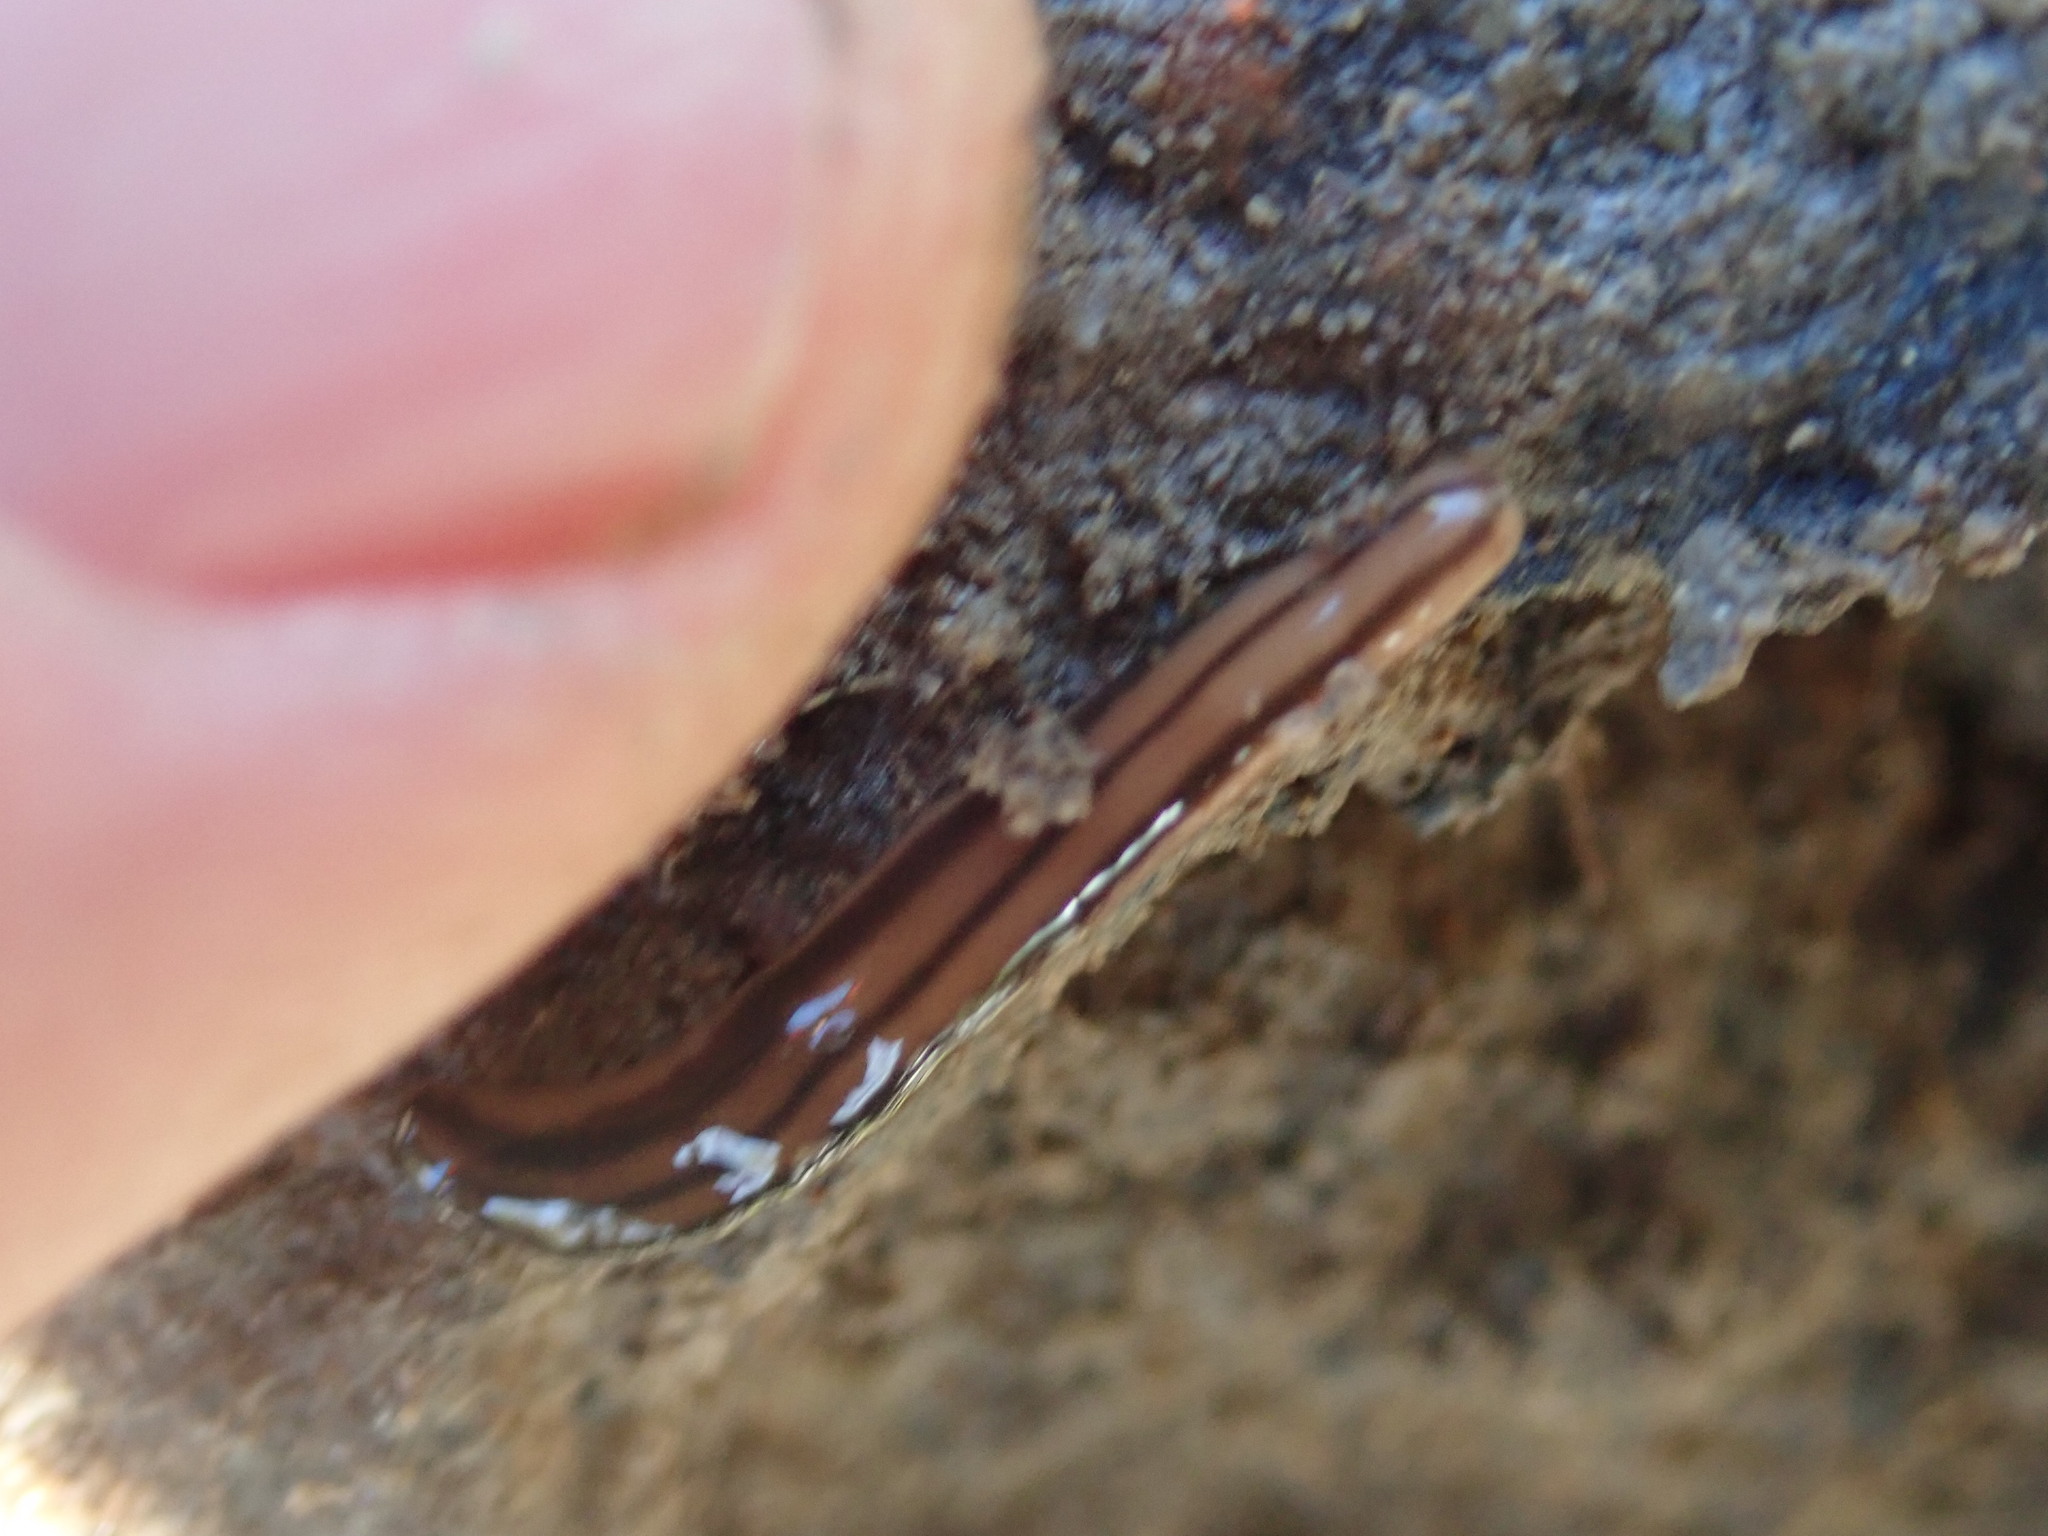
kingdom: Animalia
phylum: Platyhelminthes
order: Tricladida
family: Geoplanidae
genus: Anzoplana
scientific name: Anzoplana trilineata
